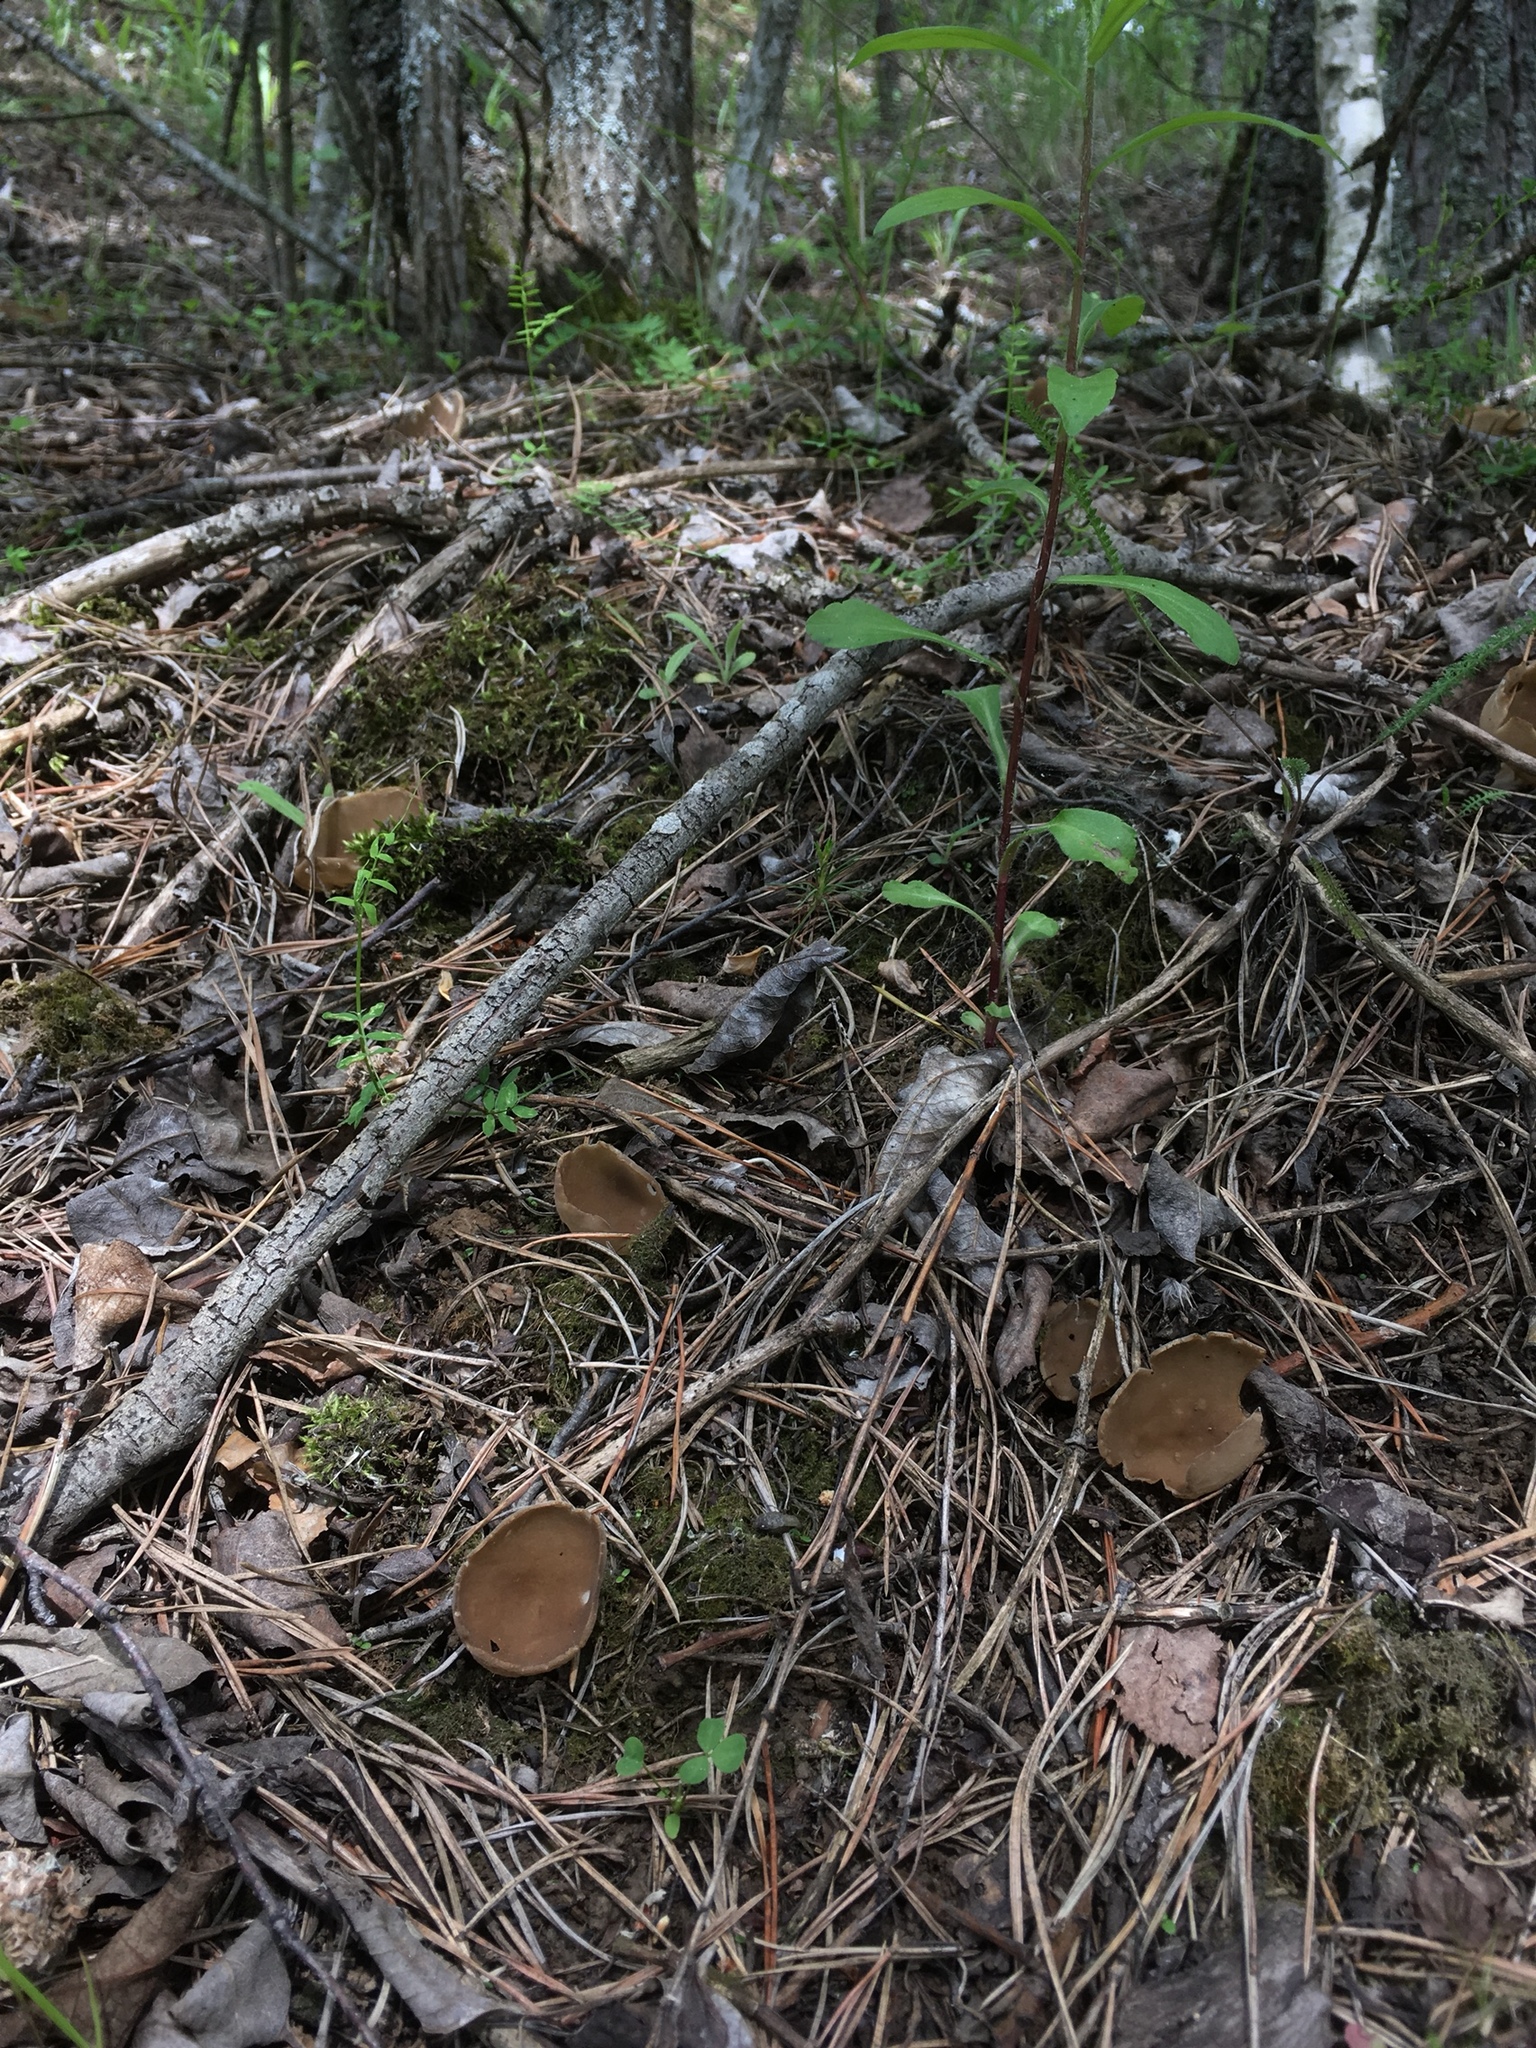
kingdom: Fungi
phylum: Ascomycota
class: Pezizomycetes
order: Pezizales
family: Helvellaceae
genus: Helvella
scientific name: Helvella acetabulum
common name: Vinegar cup
